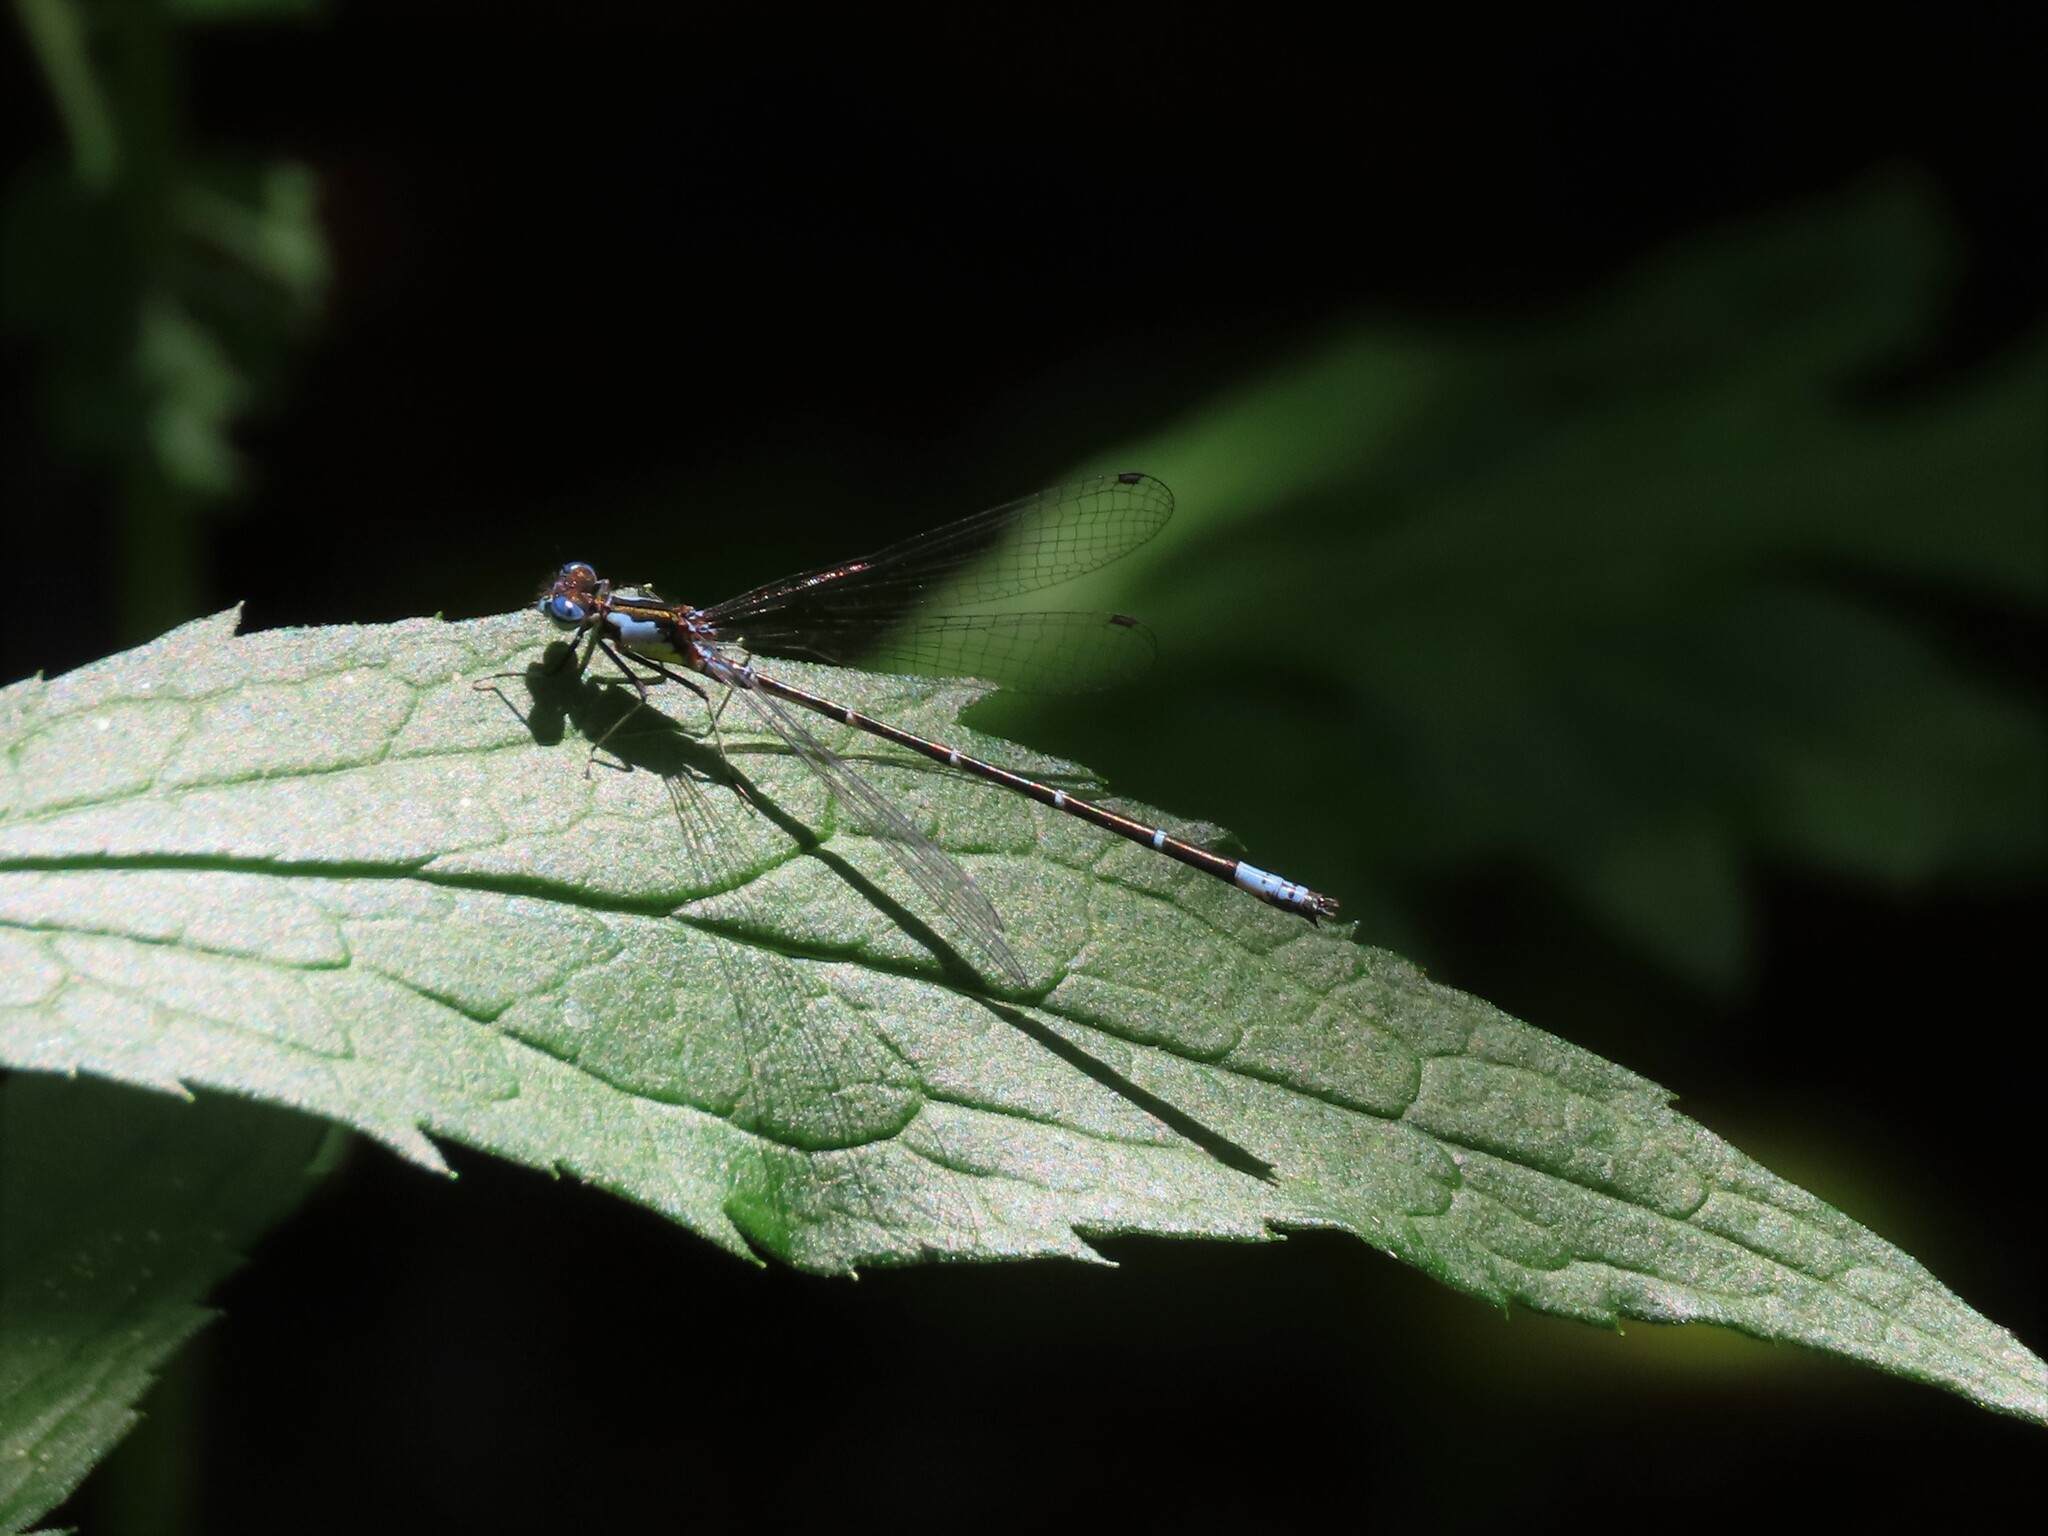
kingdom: Animalia
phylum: Arthropoda
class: Insecta
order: Odonata
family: Coenagrionidae
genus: Chromagrion
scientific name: Chromagrion conditum
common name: Aurora damsel
